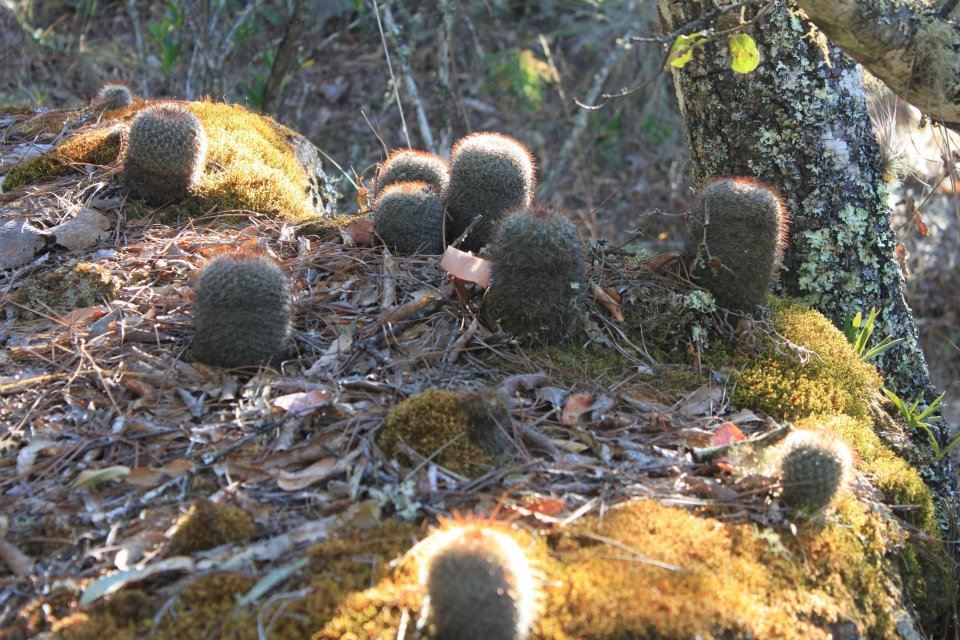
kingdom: Plantae
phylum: Tracheophyta
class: Magnoliopsida
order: Caryophyllales
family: Cactaceae
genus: Mammillaria
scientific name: Mammillaria rekoi
